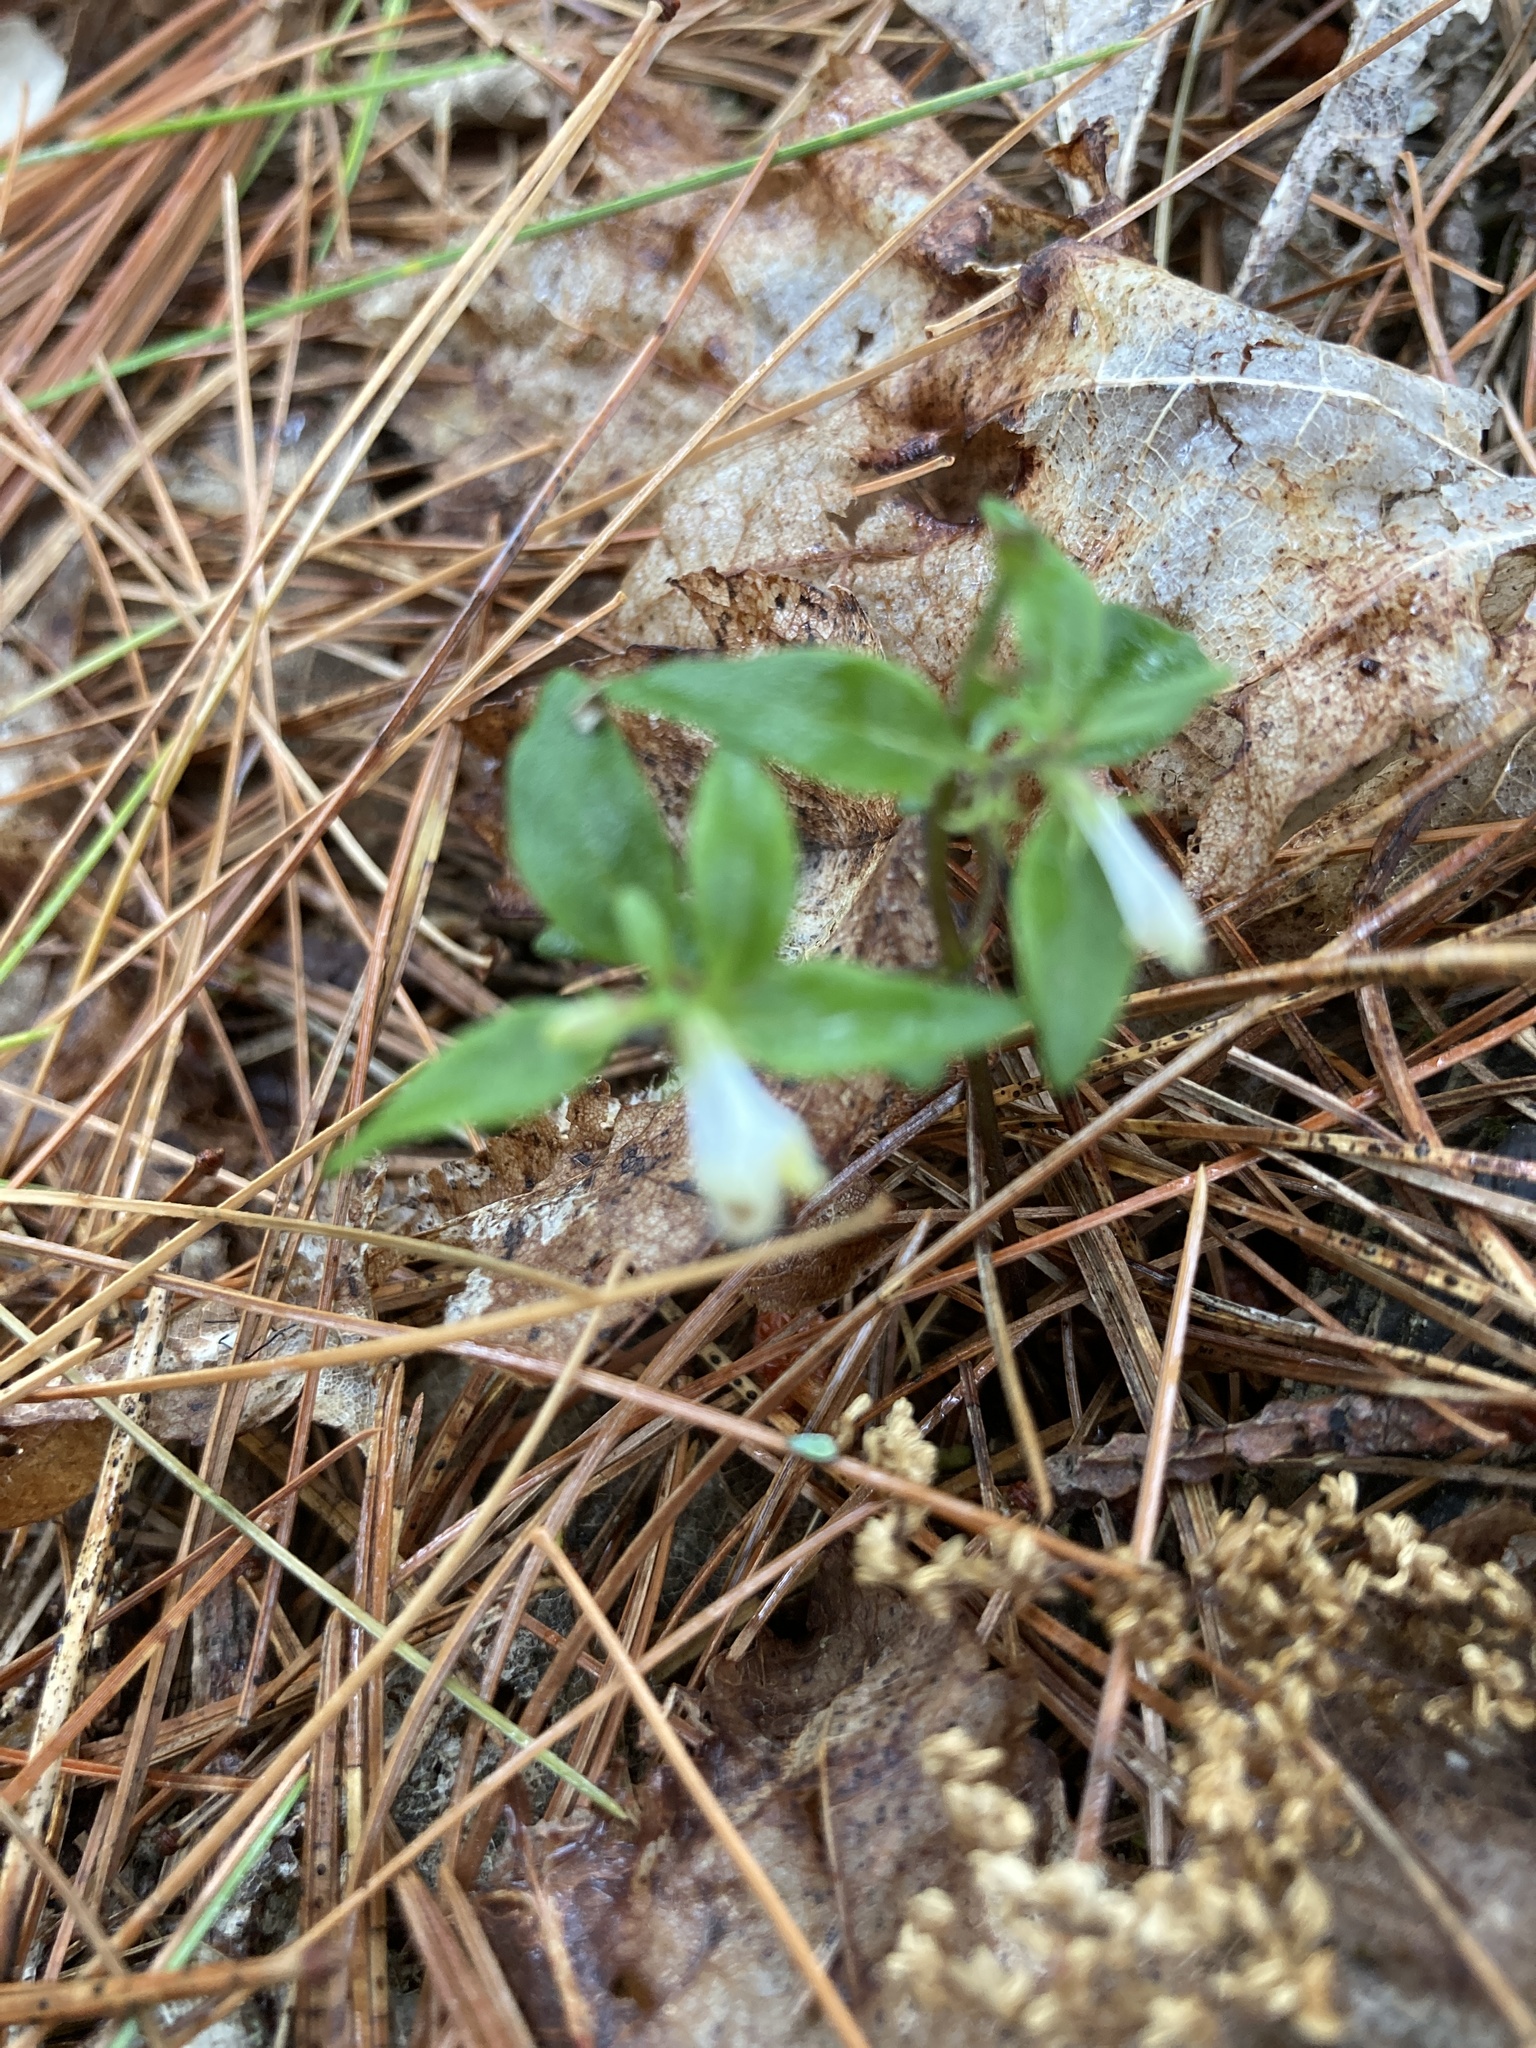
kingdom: Plantae
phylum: Tracheophyta
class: Magnoliopsida
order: Lamiales
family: Orobanchaceae
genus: Melampyrum
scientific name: Melampyrum lineare
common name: American cow-wheat
